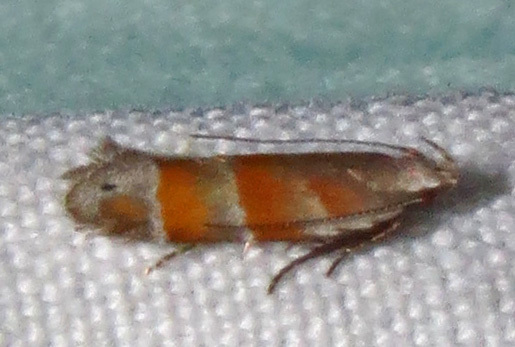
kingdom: Animalia
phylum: Arthropoda
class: Insecta
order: Lepidoptera
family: Gelechiidae
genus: Battaristis
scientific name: Battaristis vittella
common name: Orange stripe-backed moth
